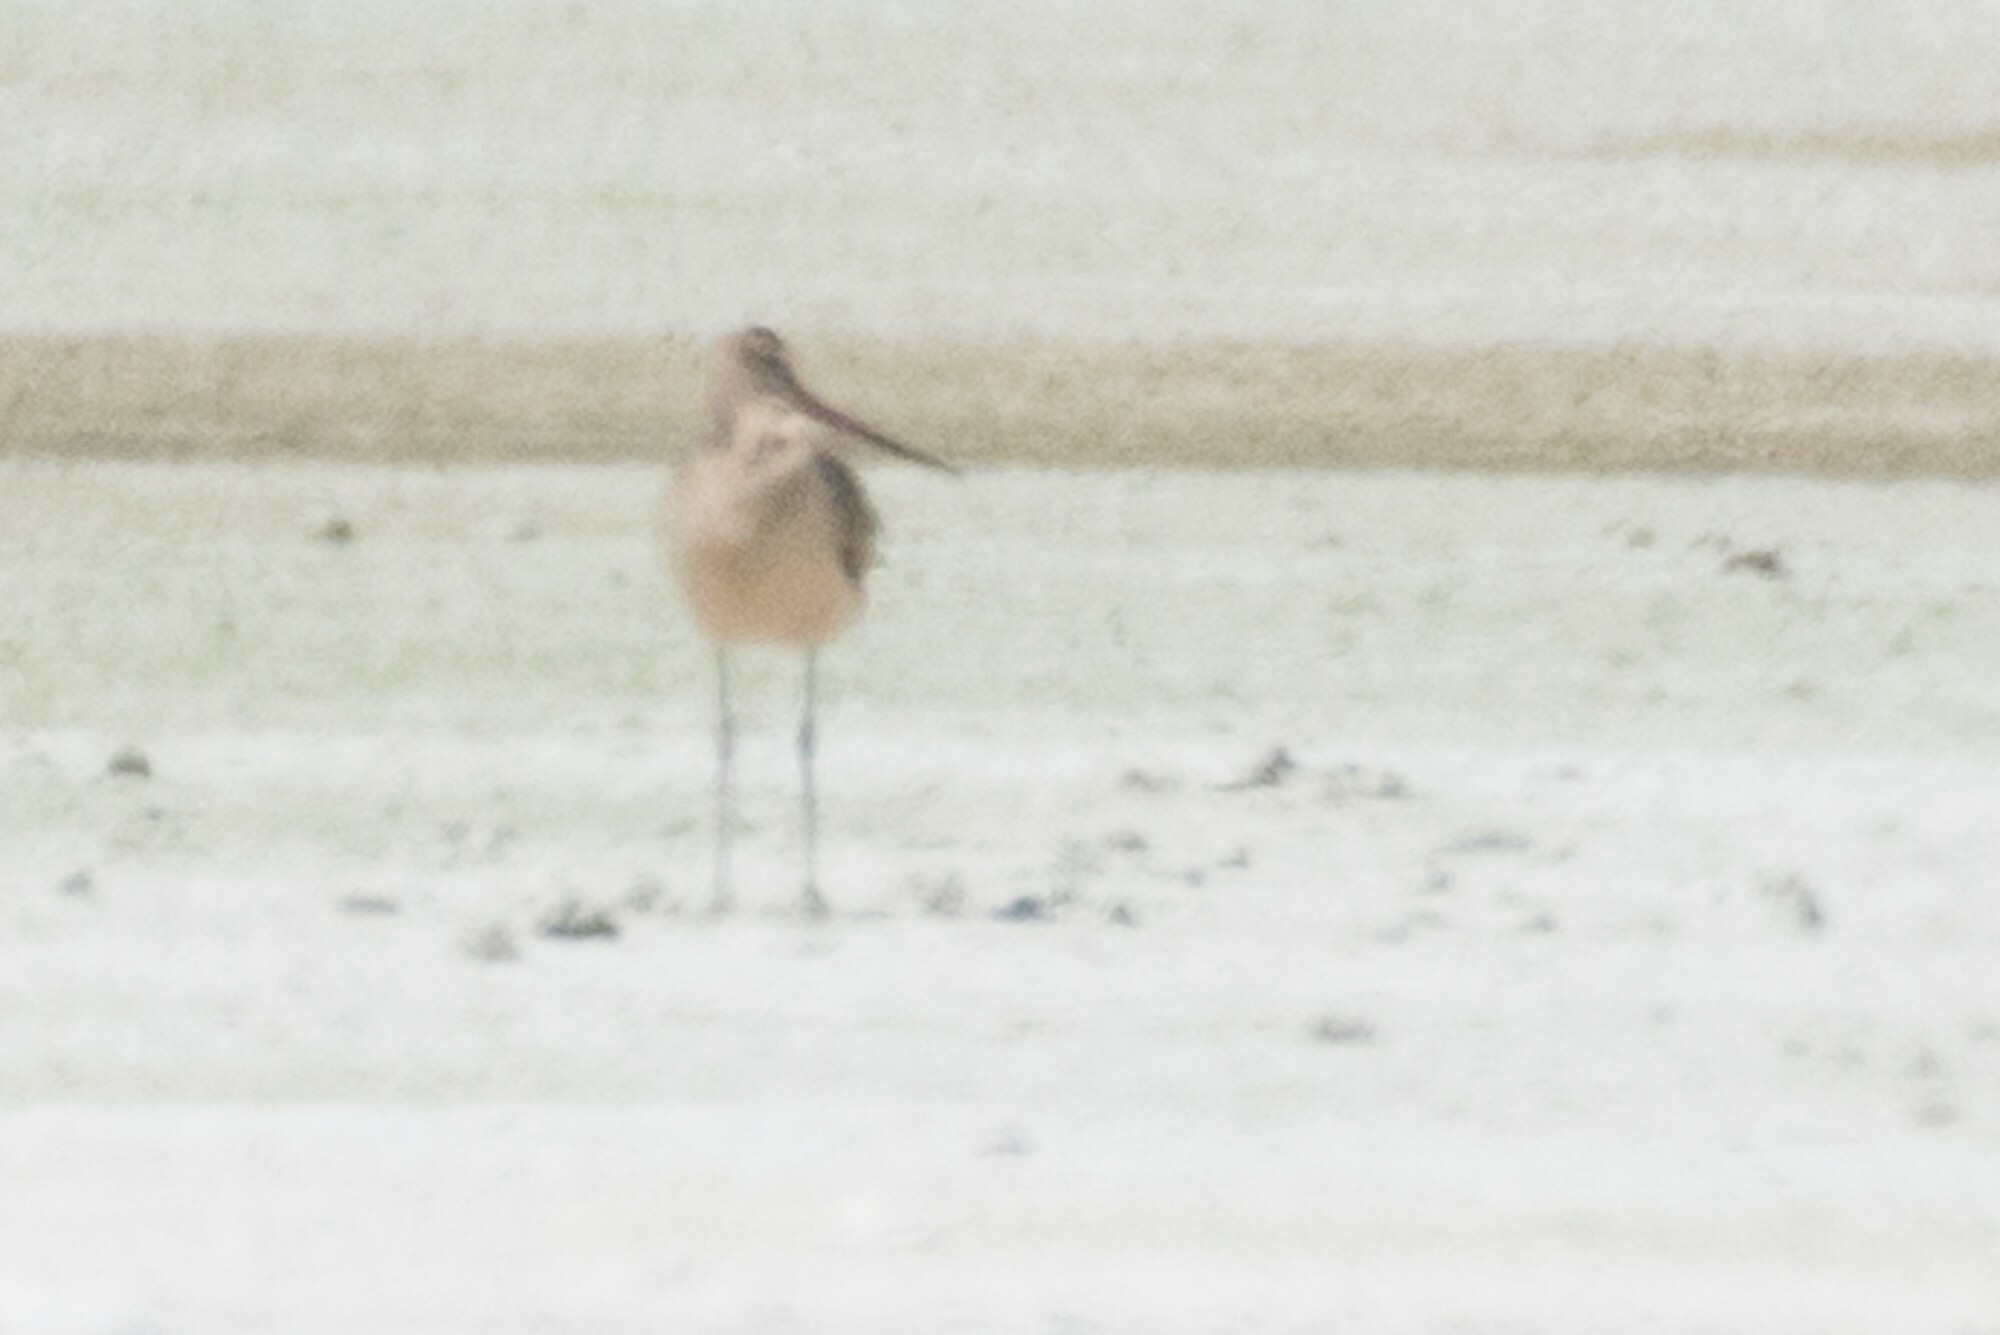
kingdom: Animalia
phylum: Chordata
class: Aves
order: Charadriiformes
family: Scolopacidae
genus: Limosa
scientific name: Limosa fedoa
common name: Marbled godwit
